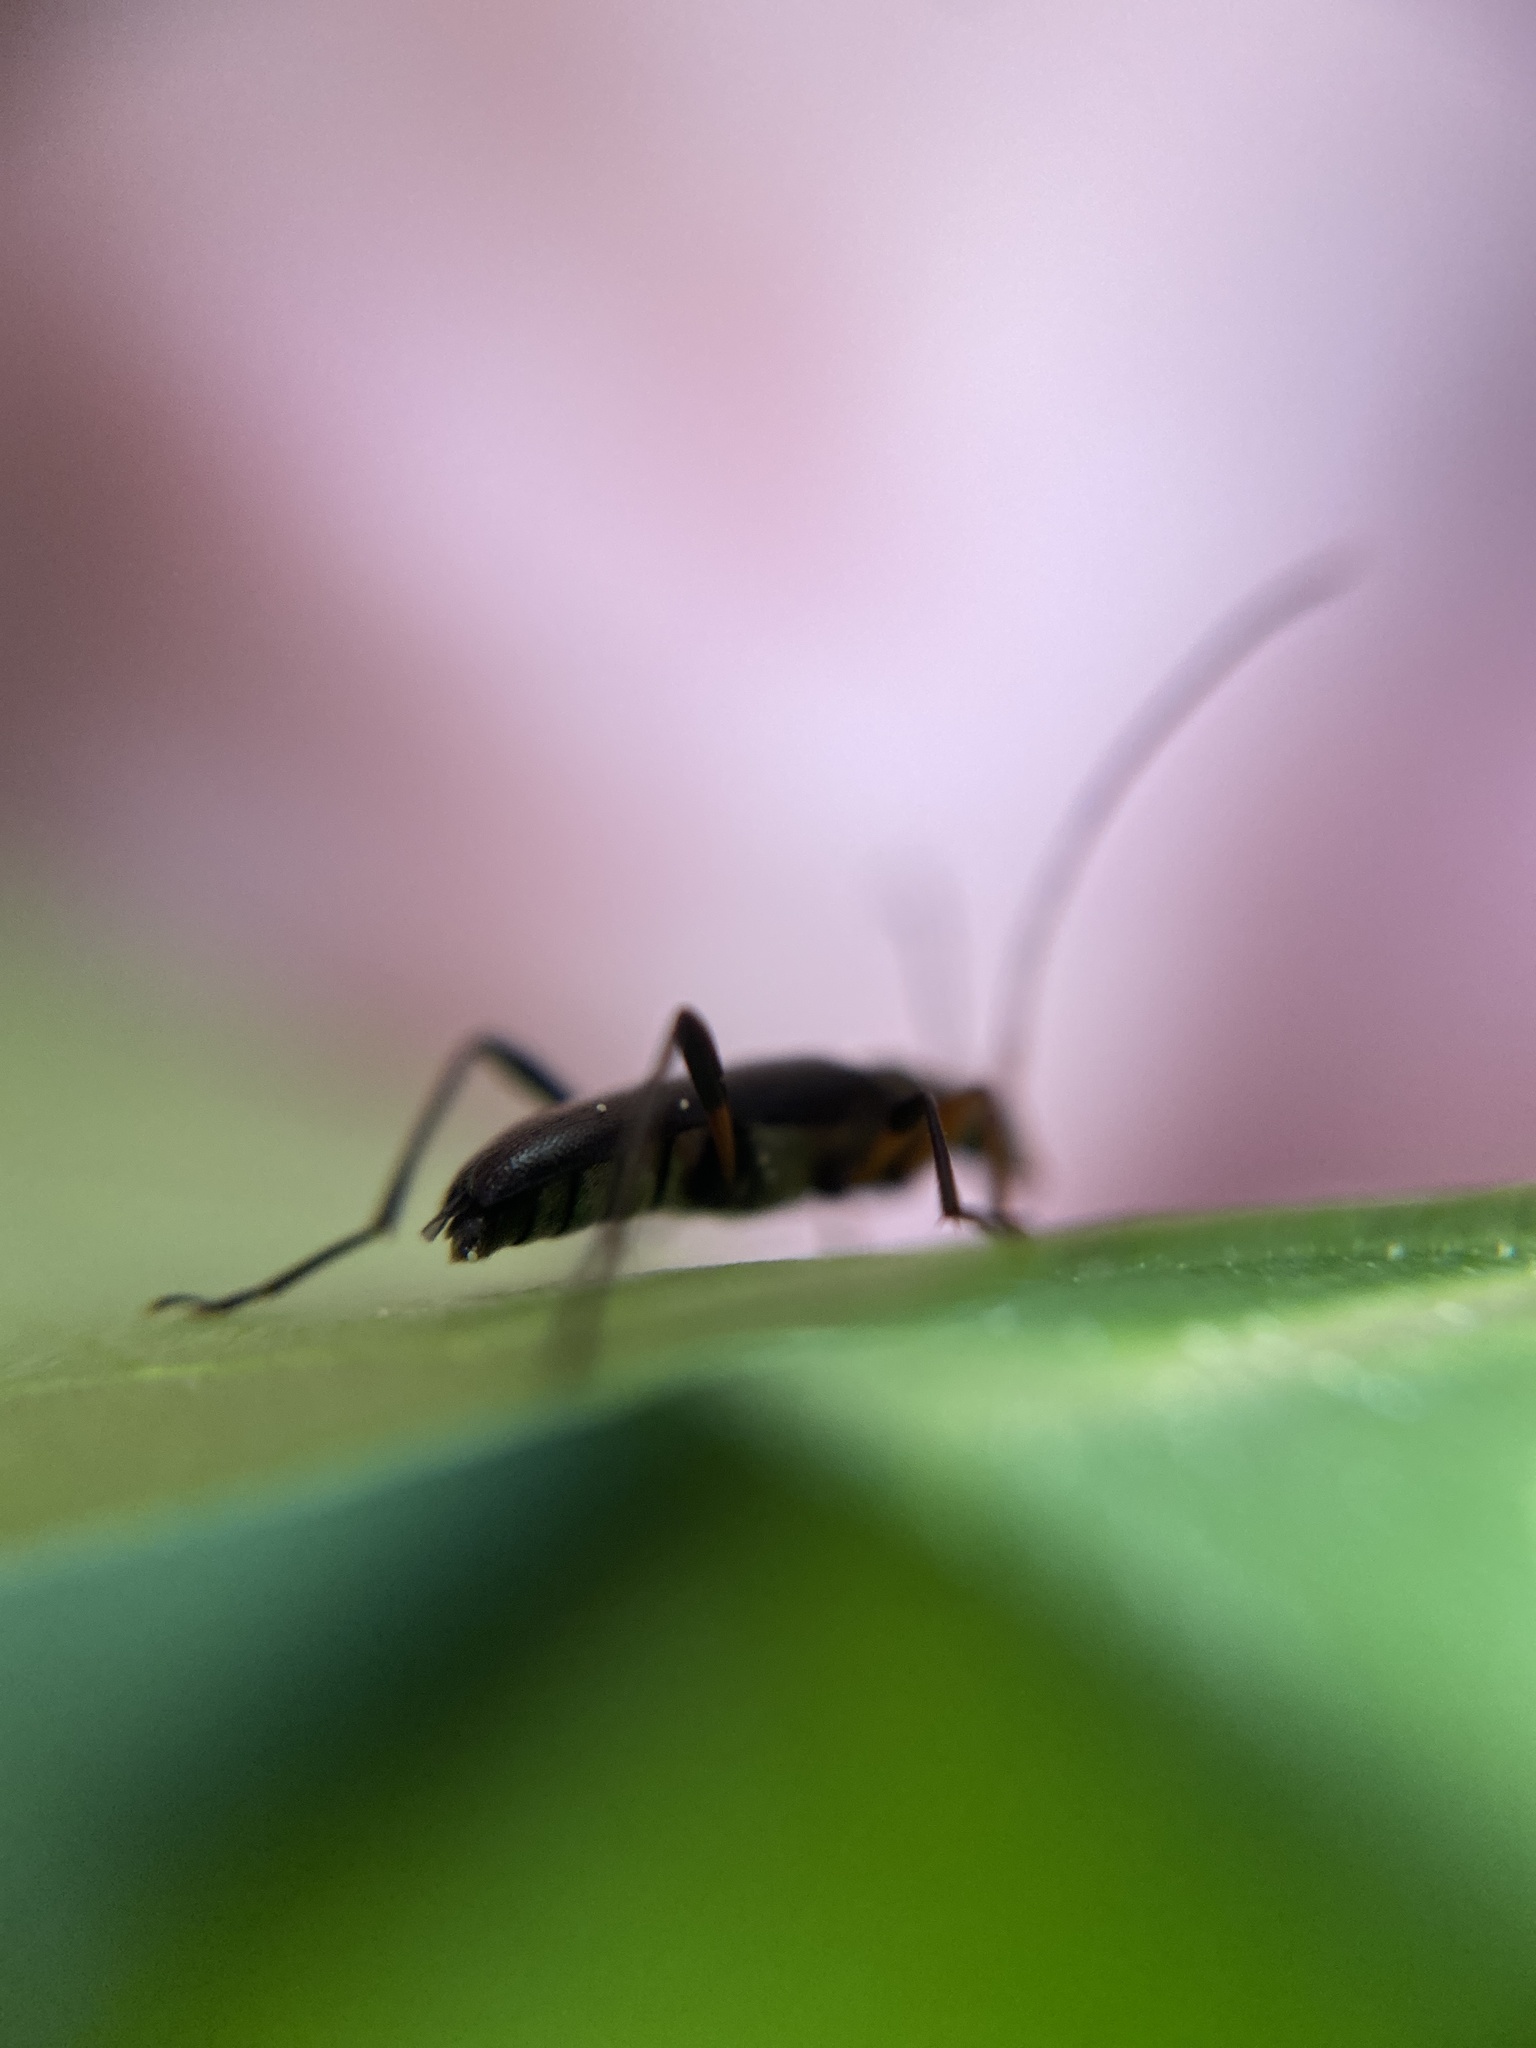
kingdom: Animalia
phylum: Arthropoda
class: Insecta
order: Coleoptera
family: Cerambycidae
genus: Grammoptera
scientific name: Grammoptera ruficornis
